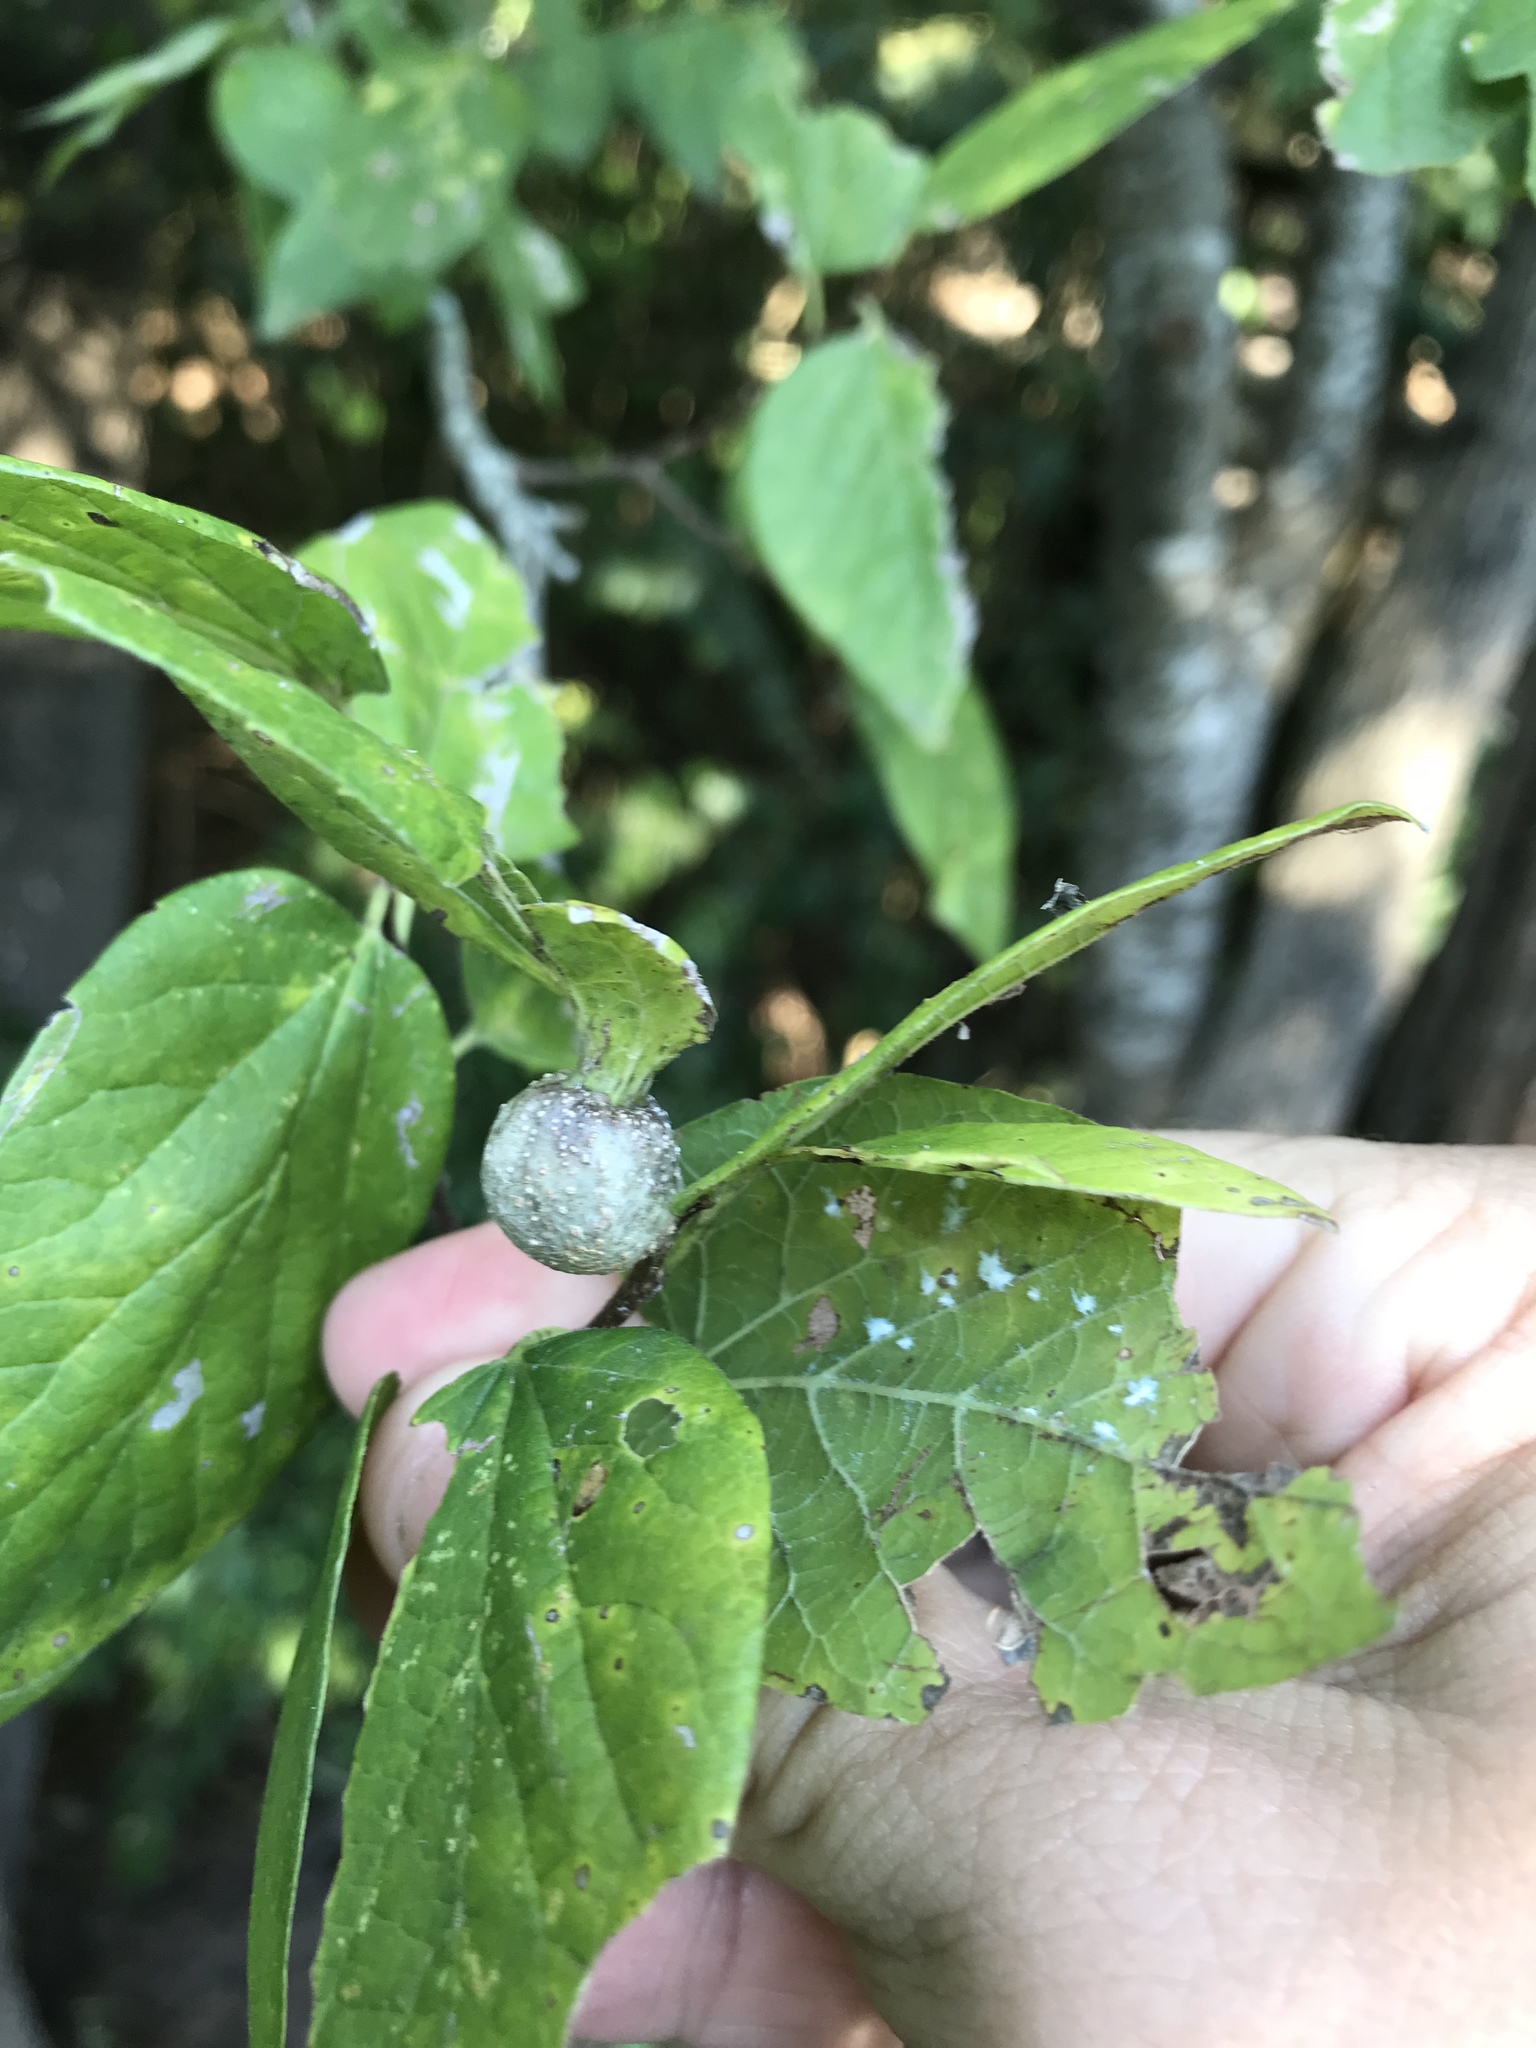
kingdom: Animalia
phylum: Arthropoda
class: Insecta
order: Hemiptera
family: Aphalaridae
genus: Pachypsylla
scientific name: Pachypsylla venusta
